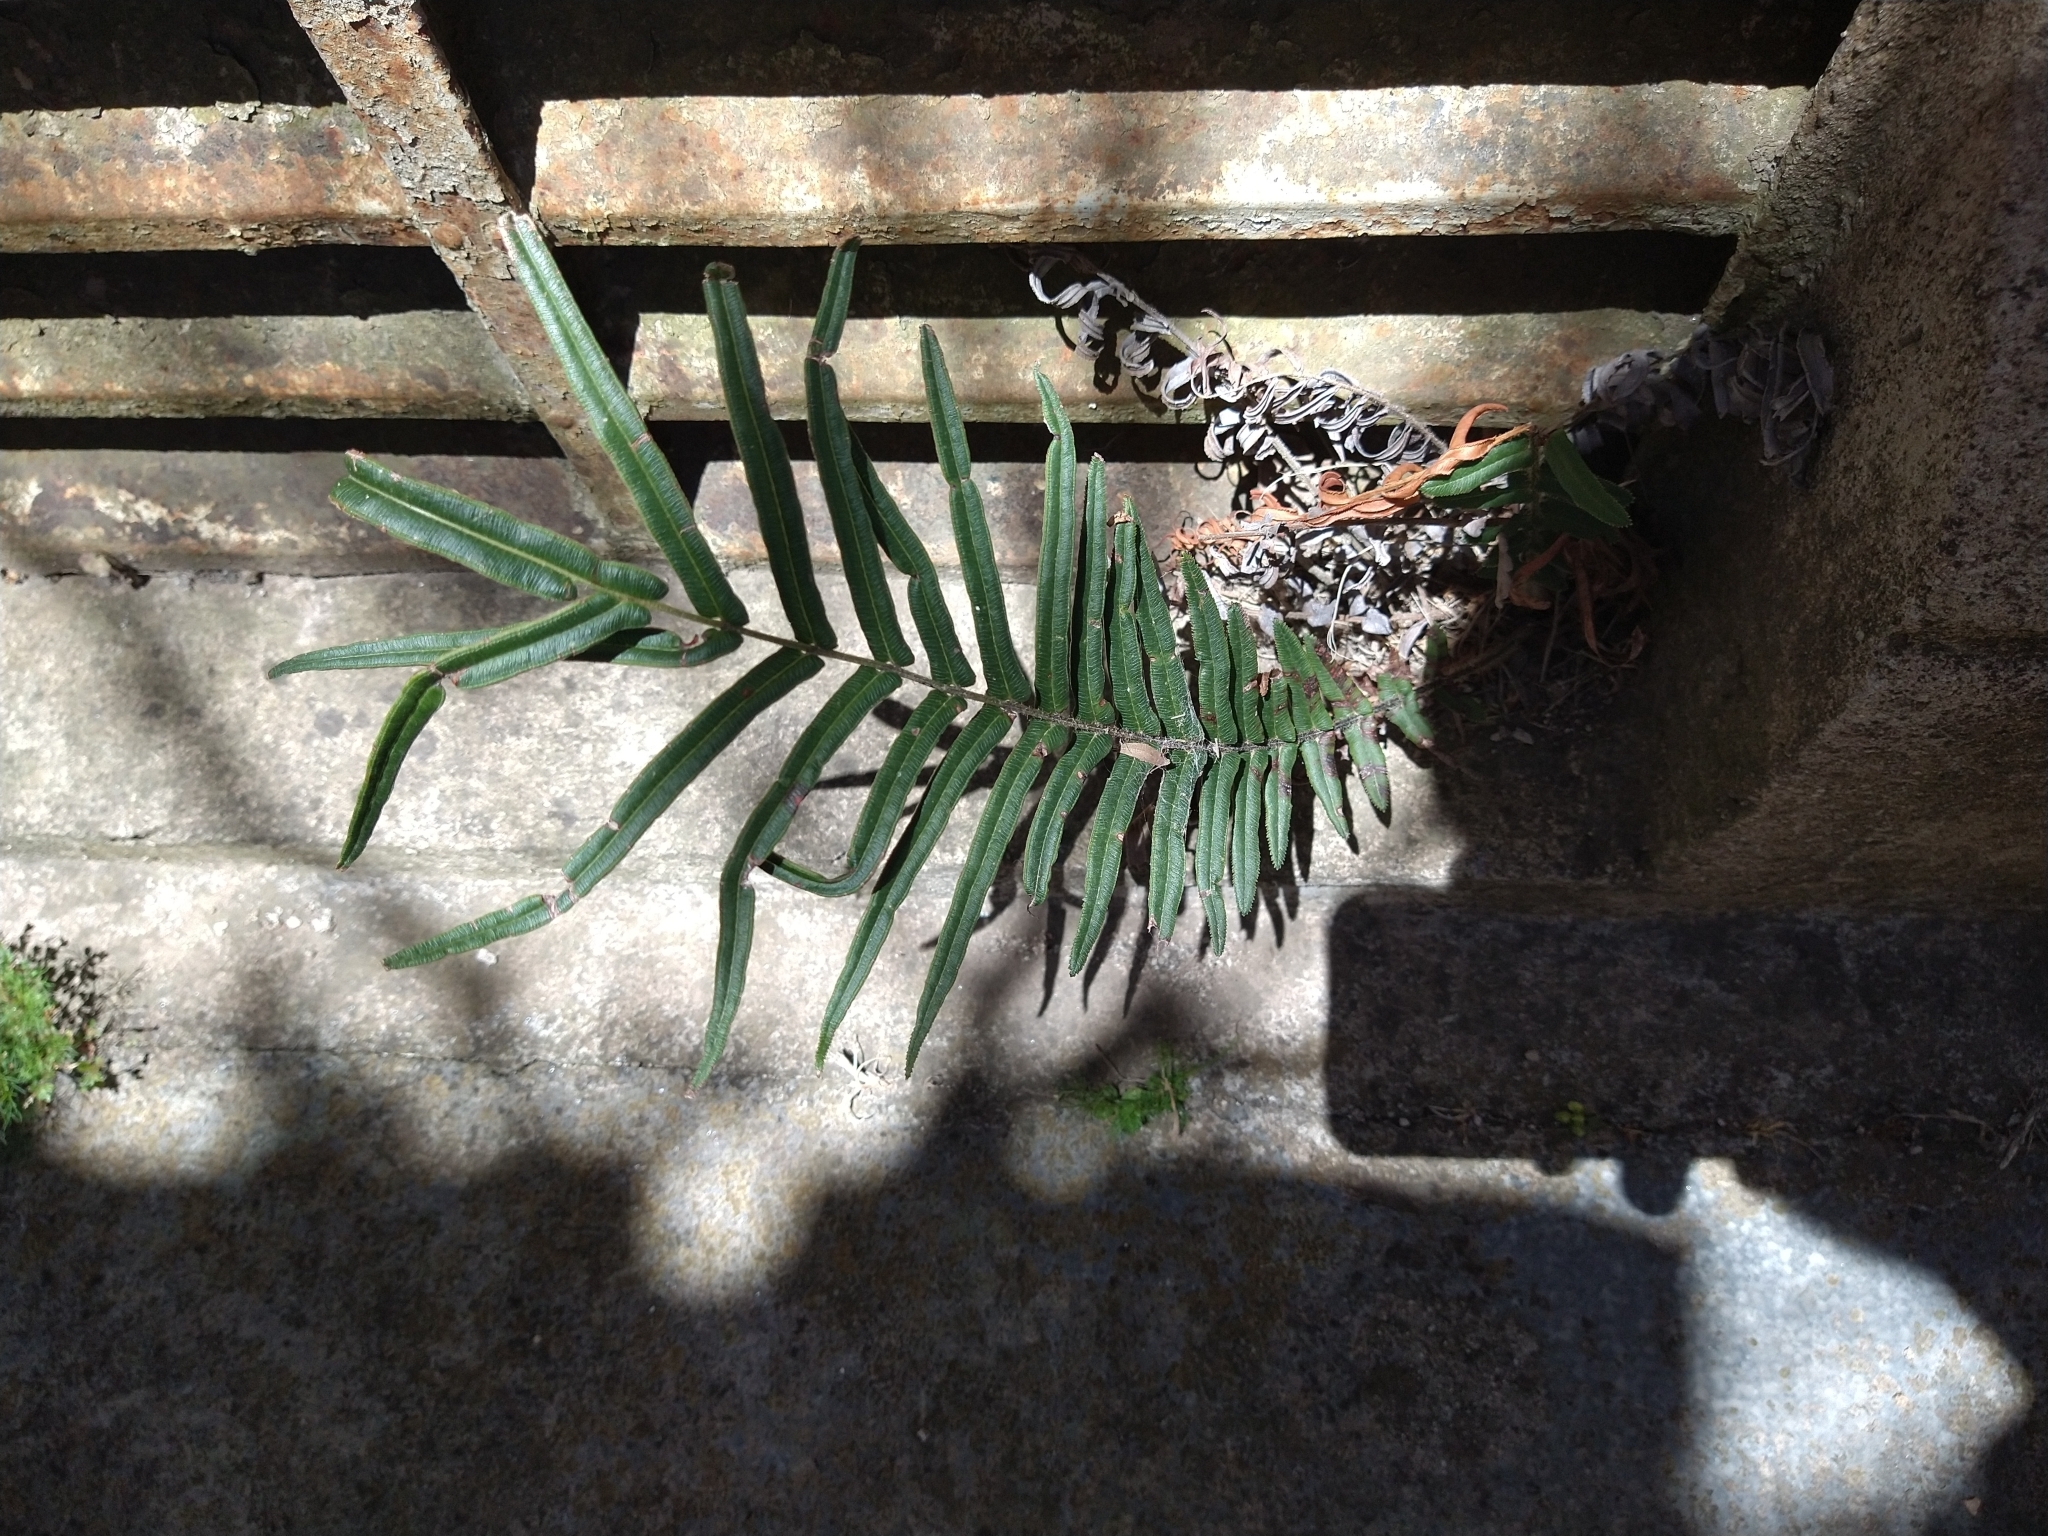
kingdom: Plantae
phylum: Tracheophyta
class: Polypodiopsida
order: Polypodiales
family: Pteridaceae
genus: Pteris
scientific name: Pteris vittata
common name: Ladder brake
